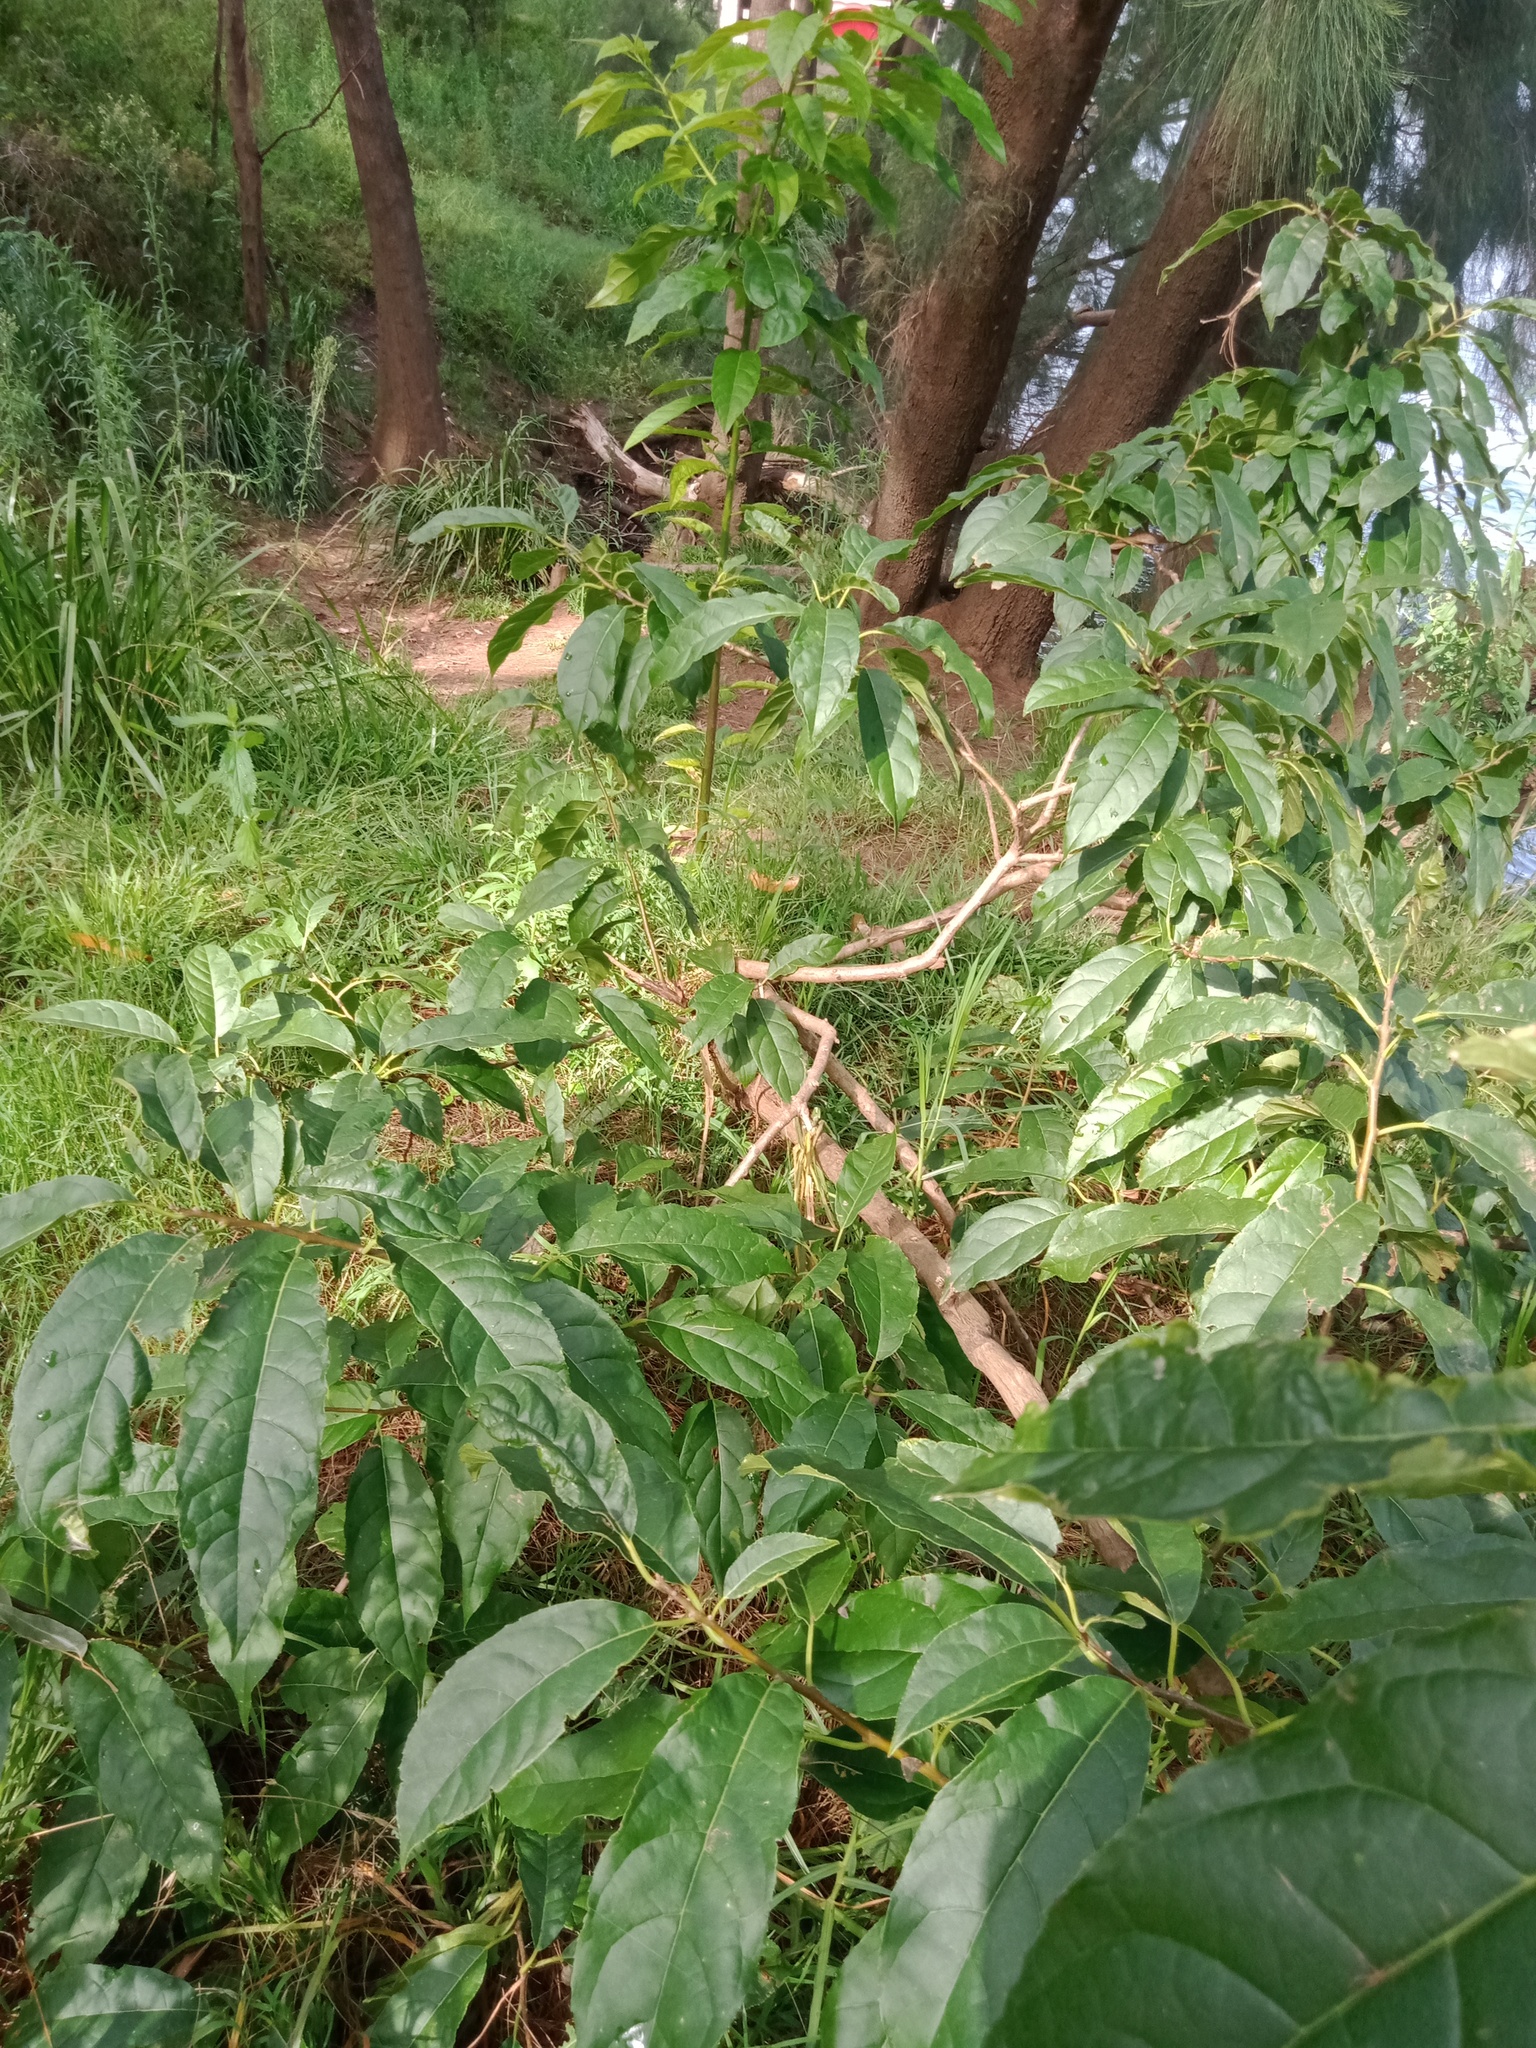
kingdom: Plantae
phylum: Tracheophyta
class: Magnoliopsida
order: Laurales
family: Lauraceae
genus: Persea
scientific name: Persea americana
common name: Avocado
